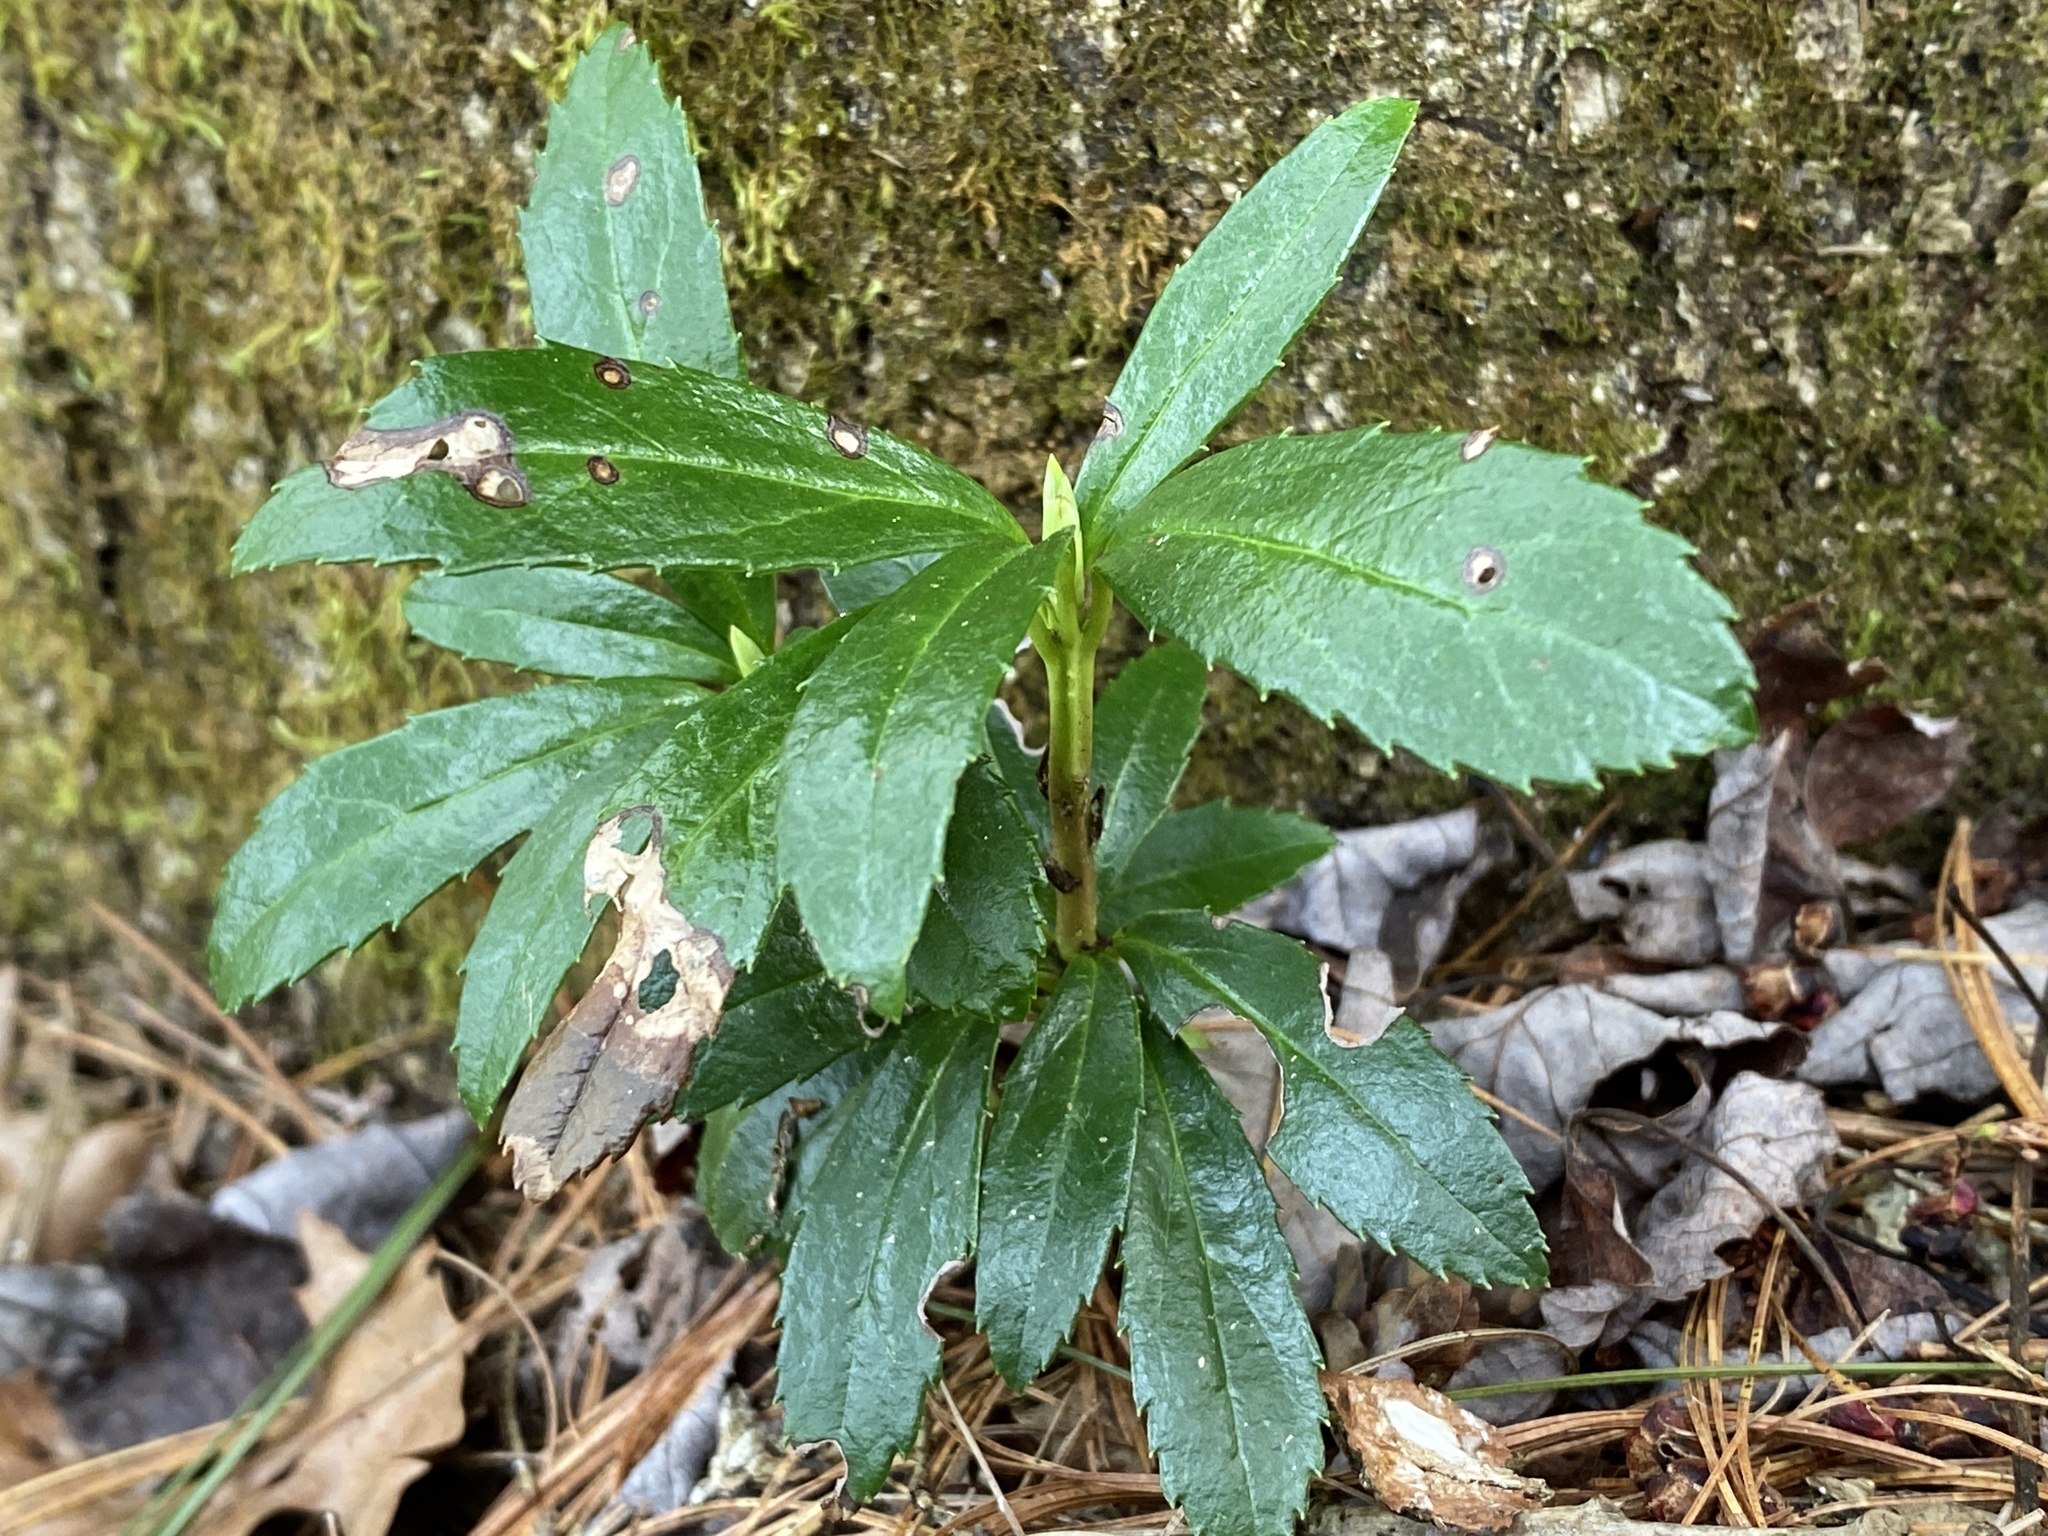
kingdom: Plantae
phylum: Tracheophyta
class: Magnoliopsida
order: Ericales
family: Ericaceae
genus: Chimaphila
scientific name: Chimaphila umbellata
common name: Pipsissewa
